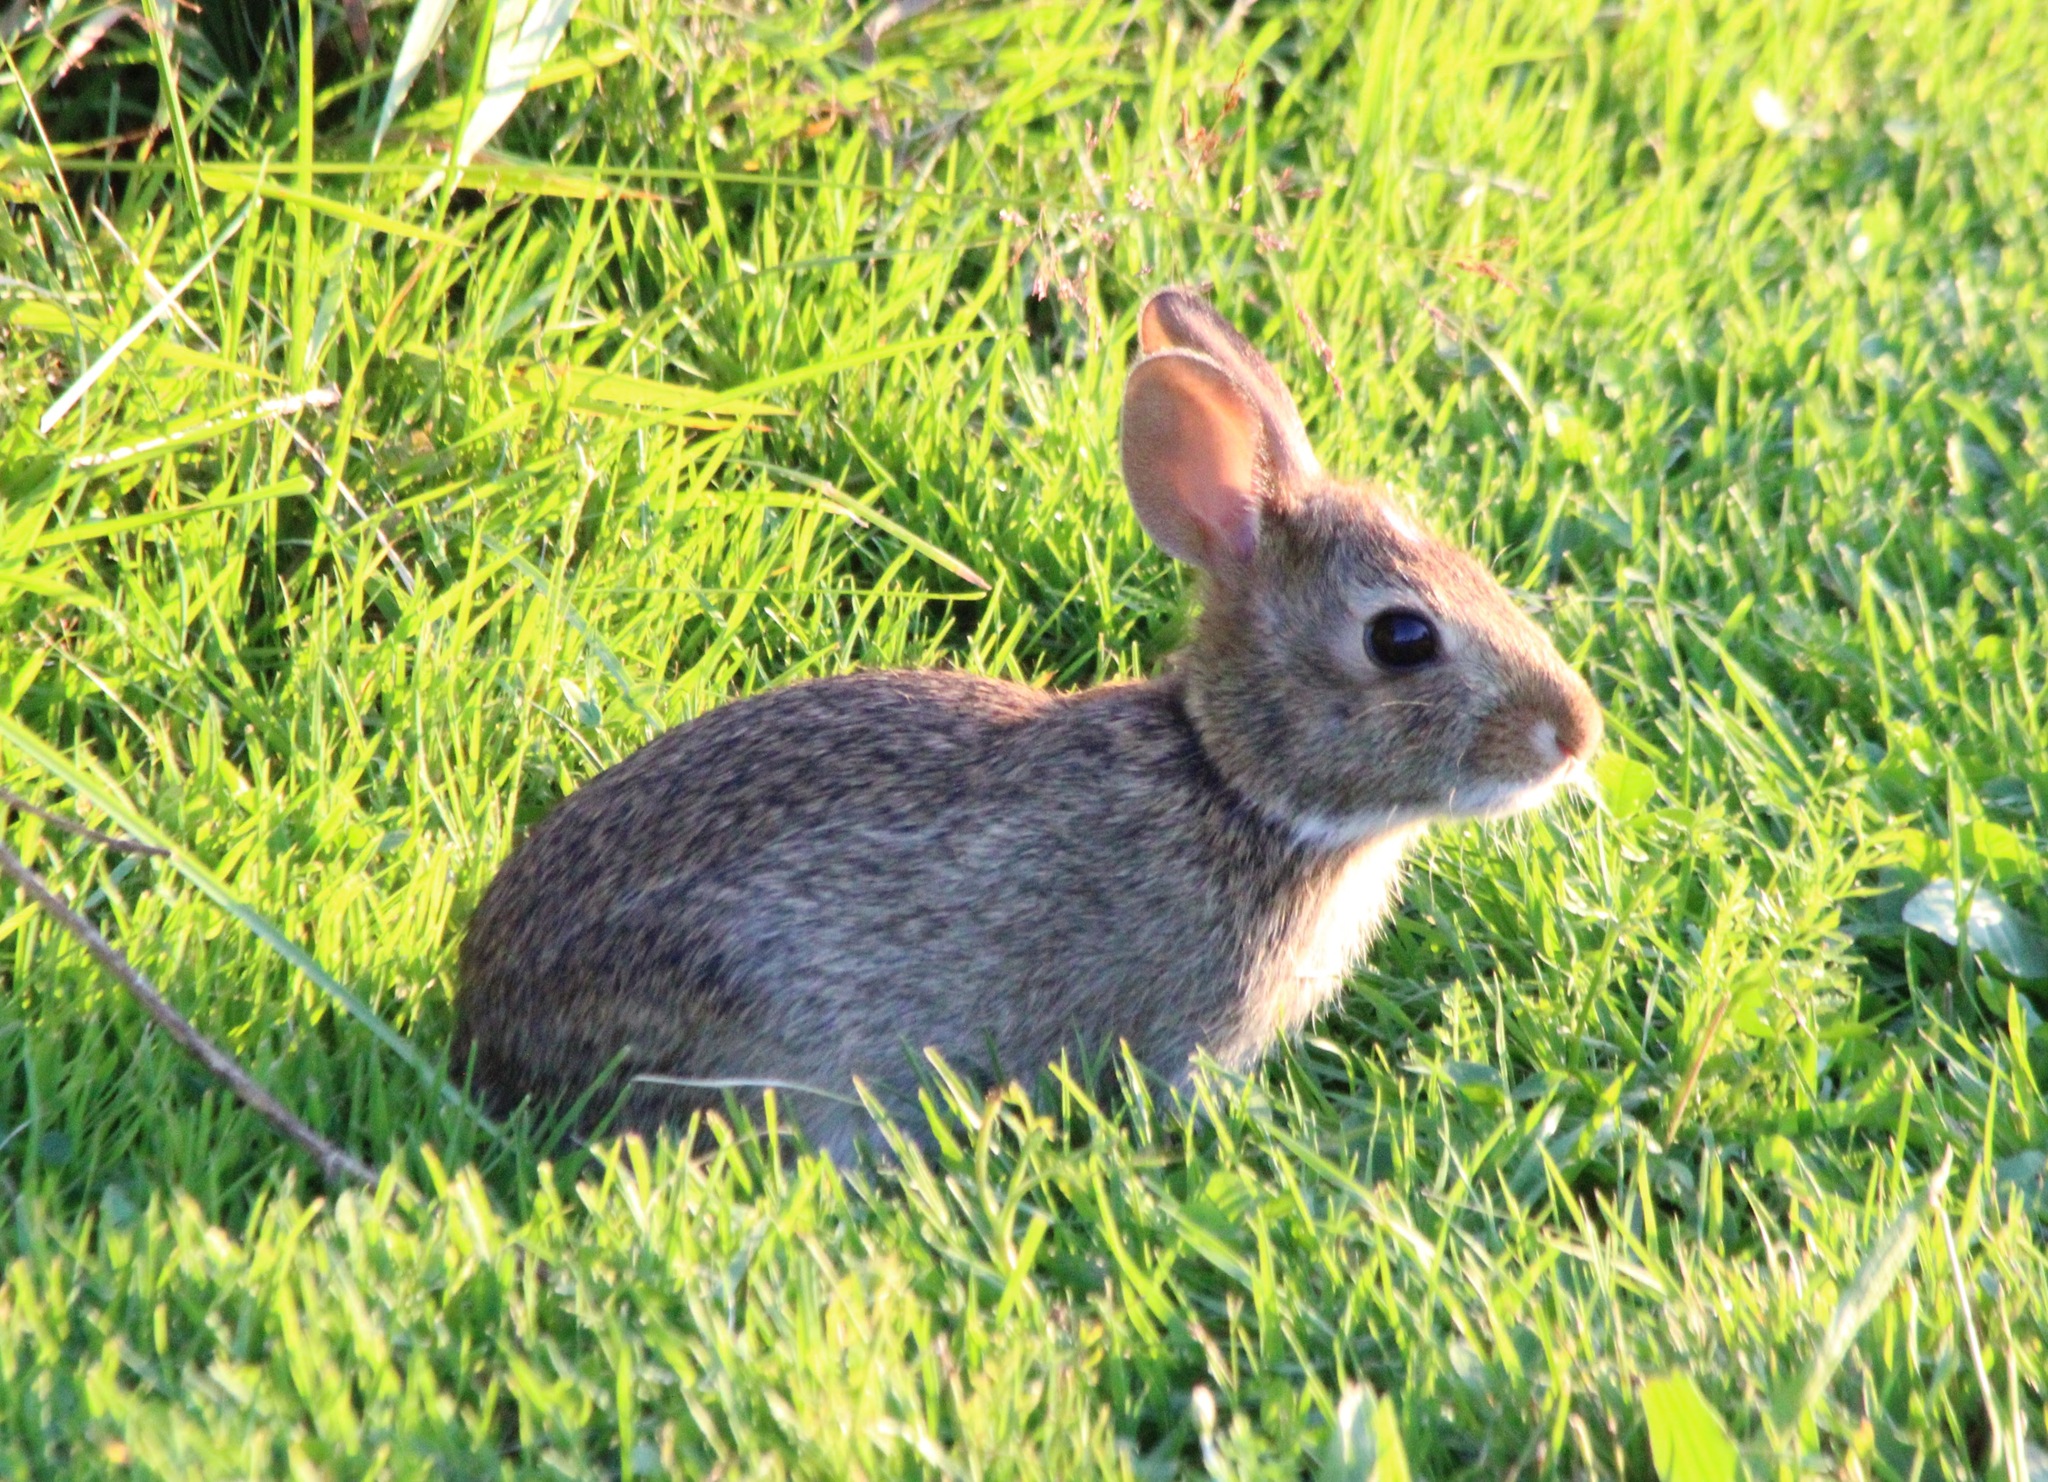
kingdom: Animalia
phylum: Chordata
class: Mammalia
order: Lagomorpha
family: Leporidae
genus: Sylvilagus
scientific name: Sylvilagus floridanus
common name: Eastern cottontail
